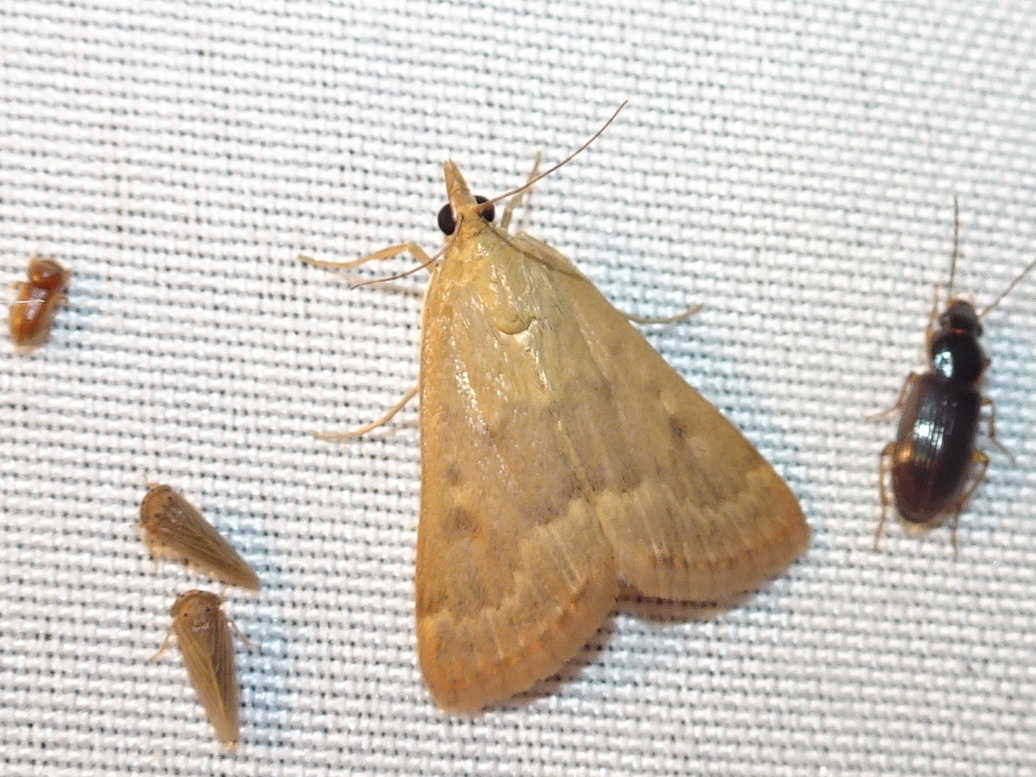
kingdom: Animalia
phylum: Arthropoda
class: Insecta
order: Lepidoptera
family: Crambidae
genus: Achyra
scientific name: Achyra rantalis
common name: Garden webworm
